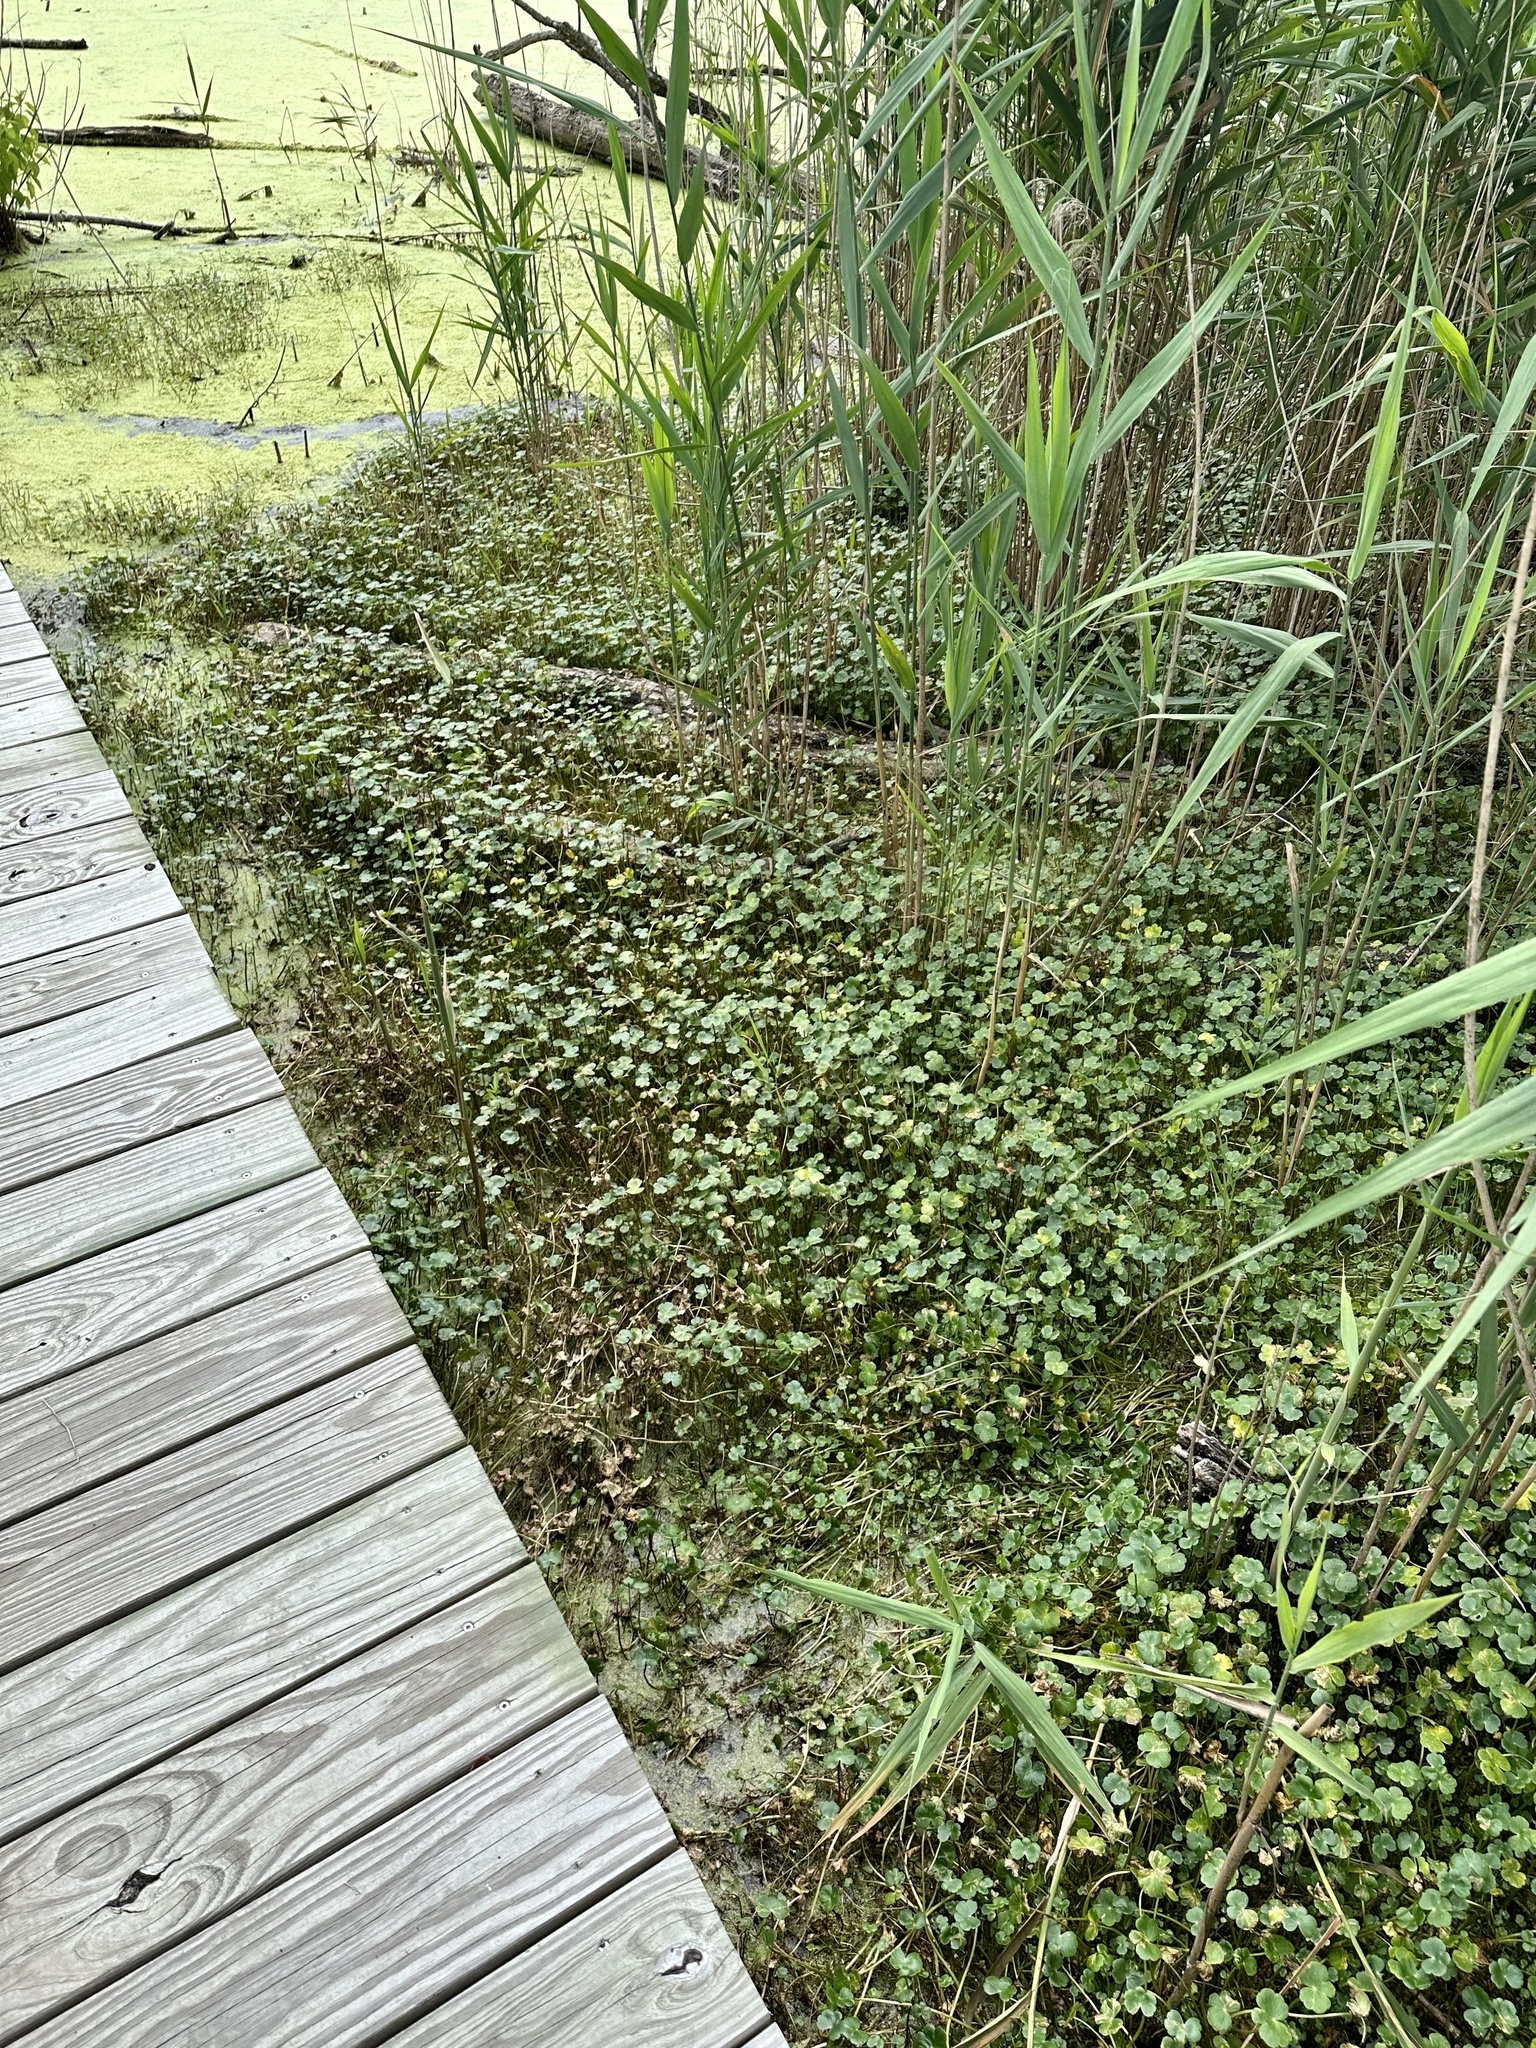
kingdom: Plantae
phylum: Tracheophyta
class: Magnoliopsida
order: Apiales
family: Araliaceae
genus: Hydrocotyle
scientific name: Hydrocotyle ranunculoides
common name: Floating pennywort
